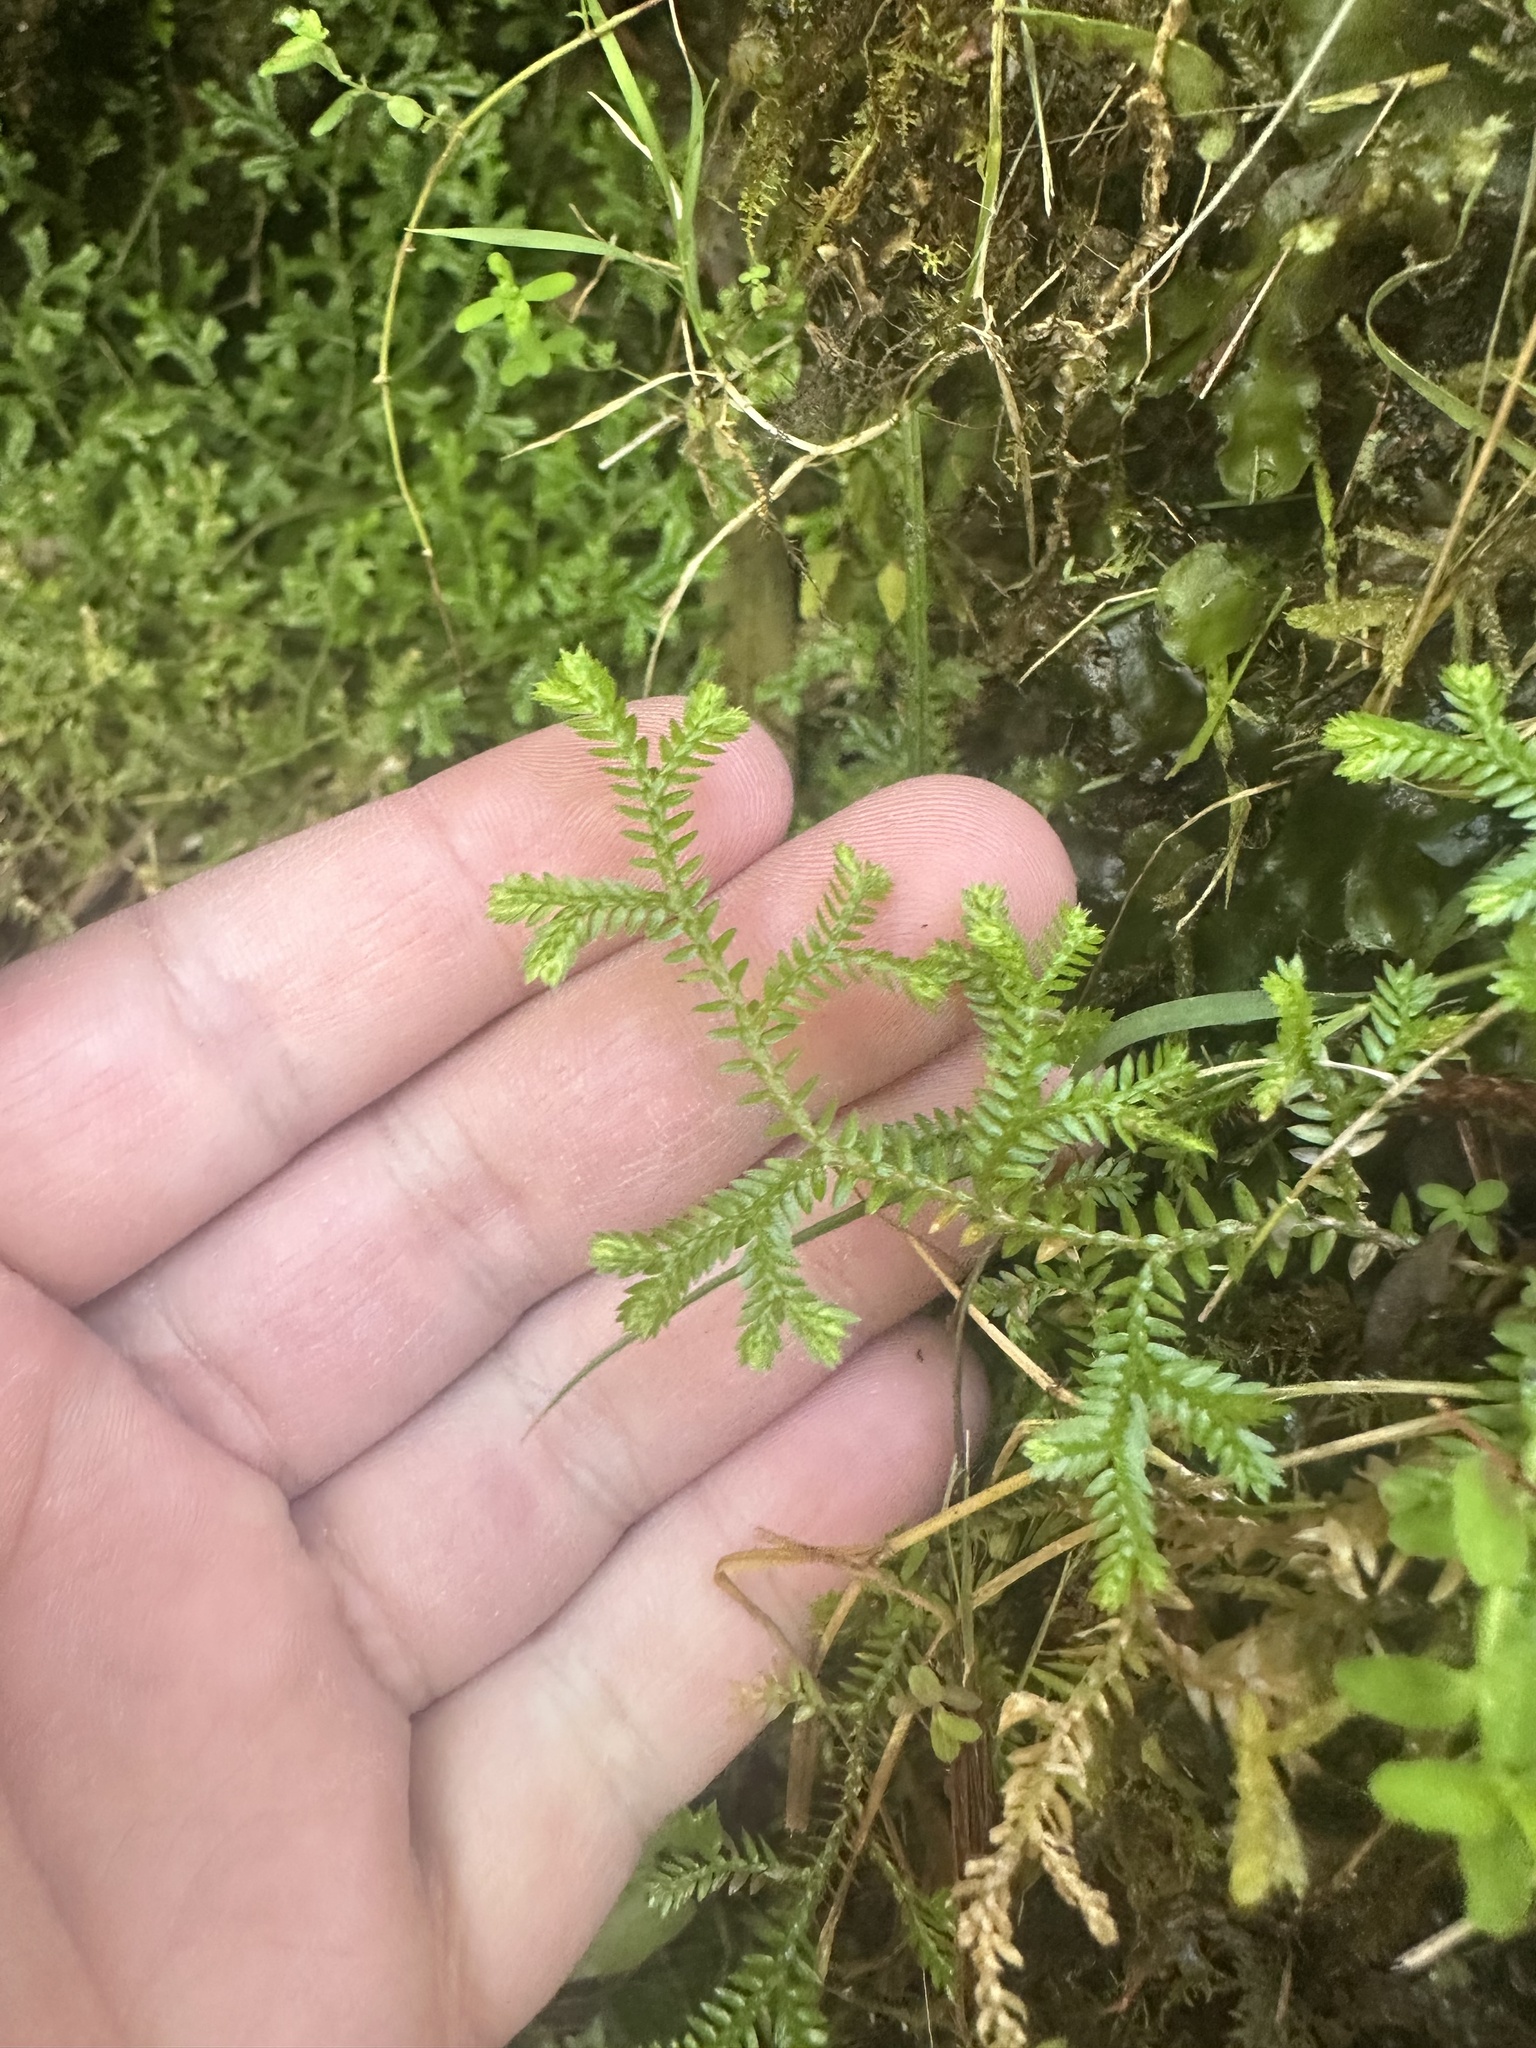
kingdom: Plantae
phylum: Tracheophyta
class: Lycopodiopsida
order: Selaginellales
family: Selaginellaceae
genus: Selaginella
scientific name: Selaginella kraussiana
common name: Krauss' spikemoss
